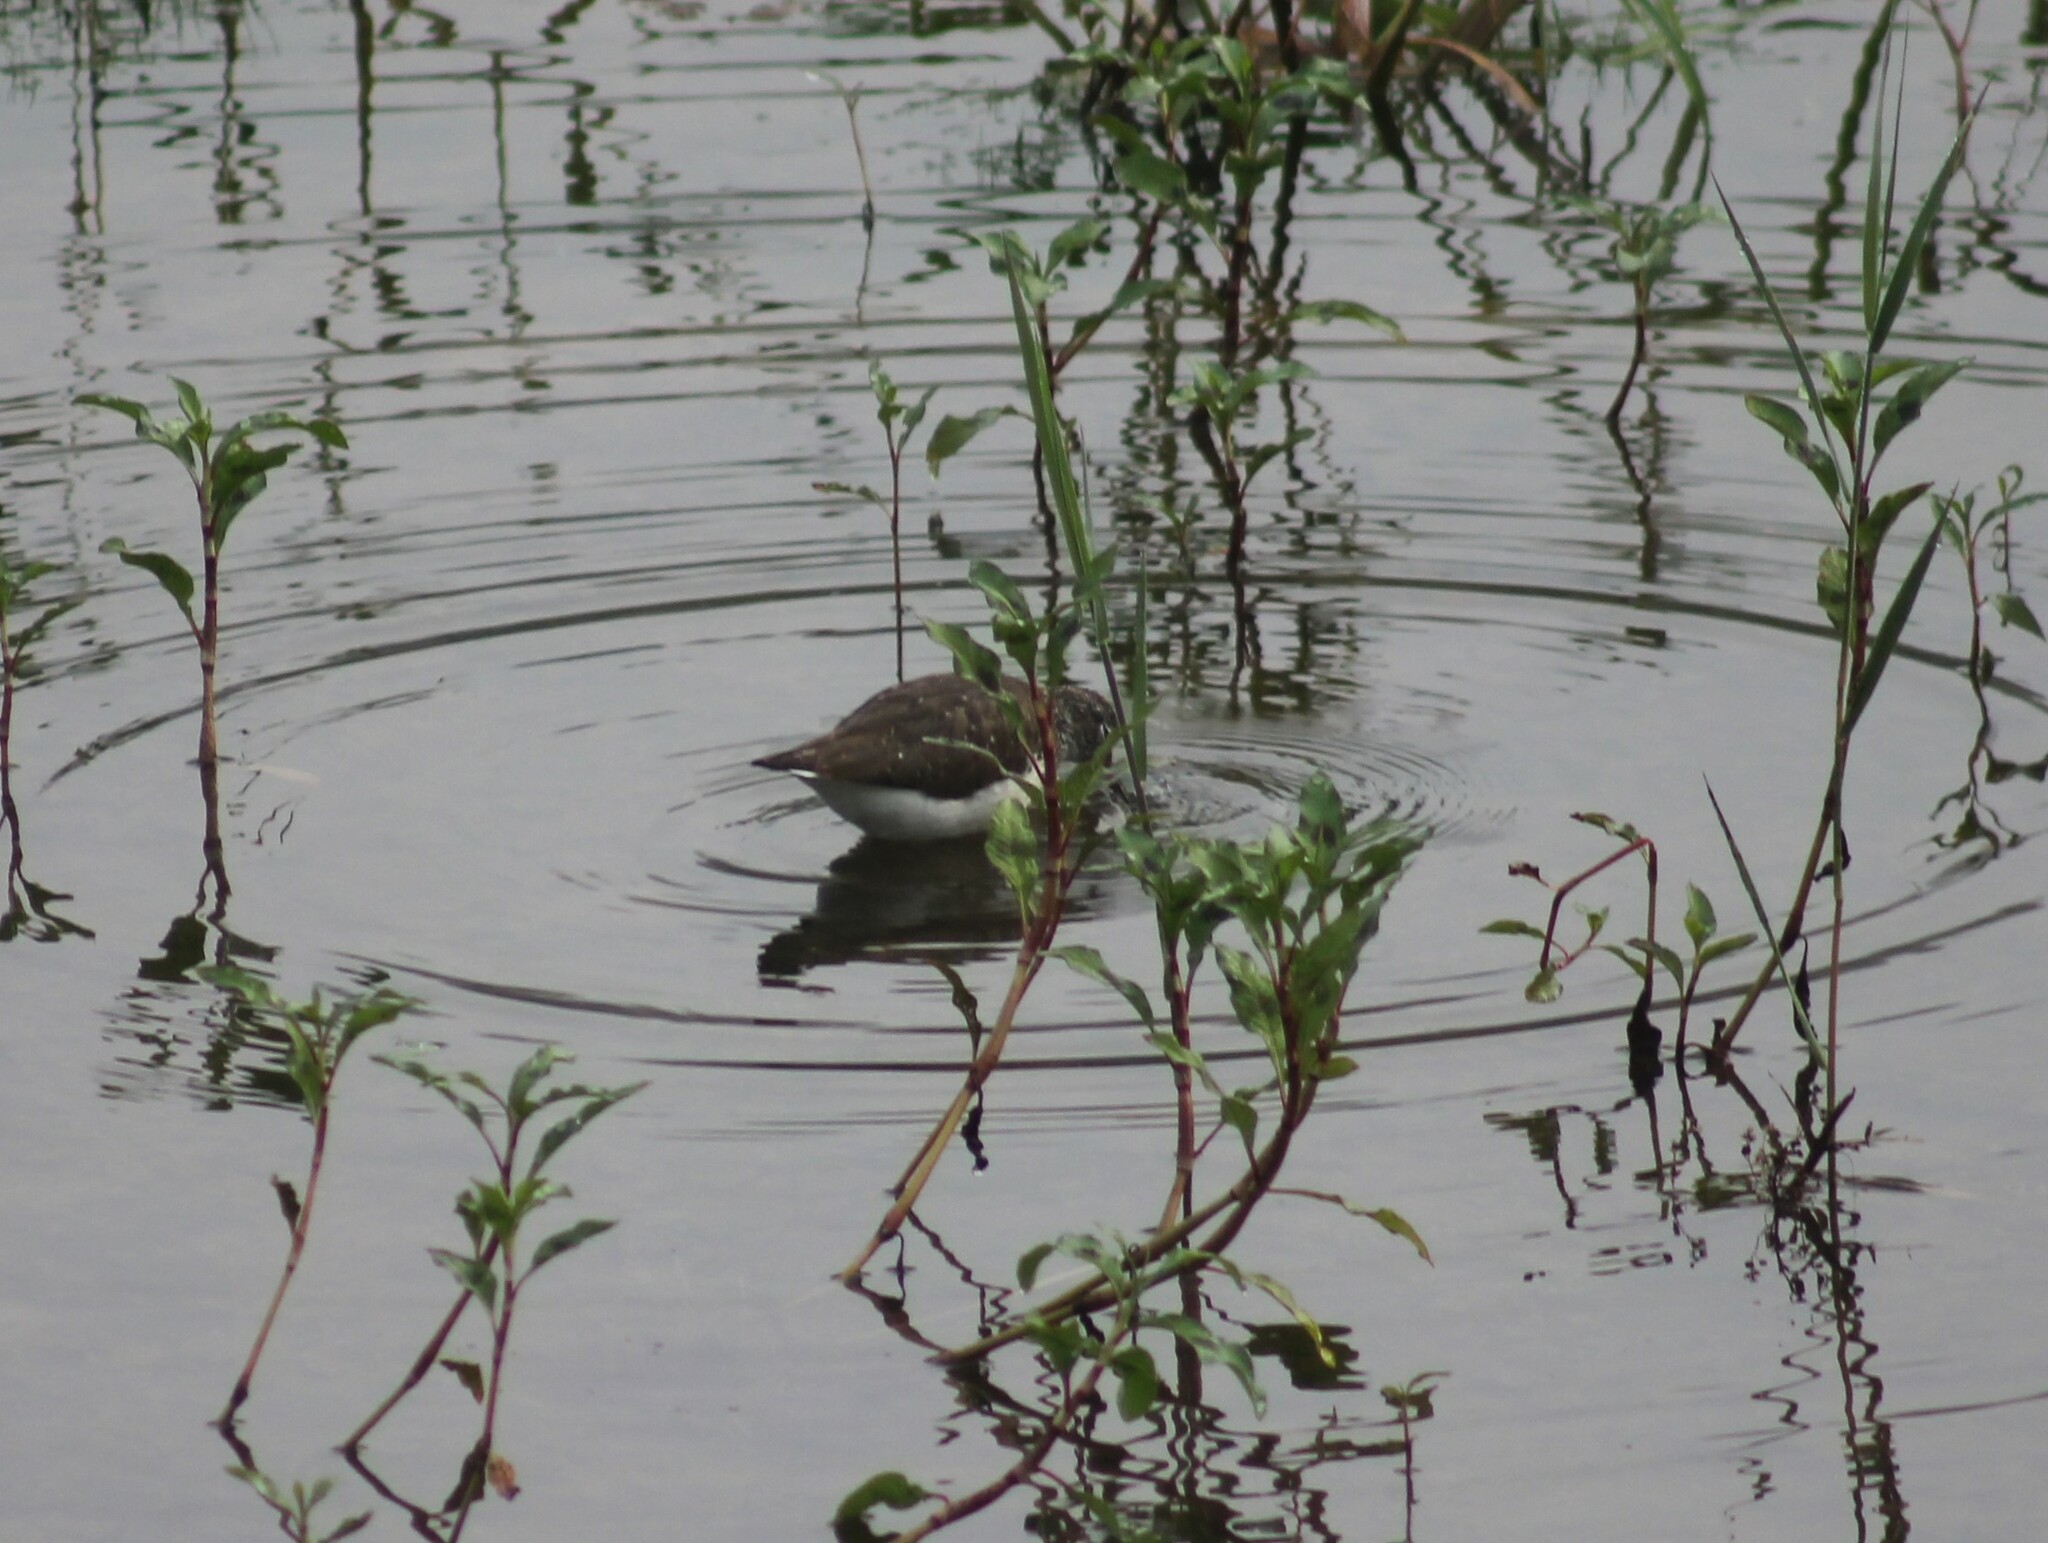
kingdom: Animalia
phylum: Chordata
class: Aves
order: Charadriiformes
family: Scolopacidae
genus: Tringa
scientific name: Tringa ochropus
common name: Green sandpiper
